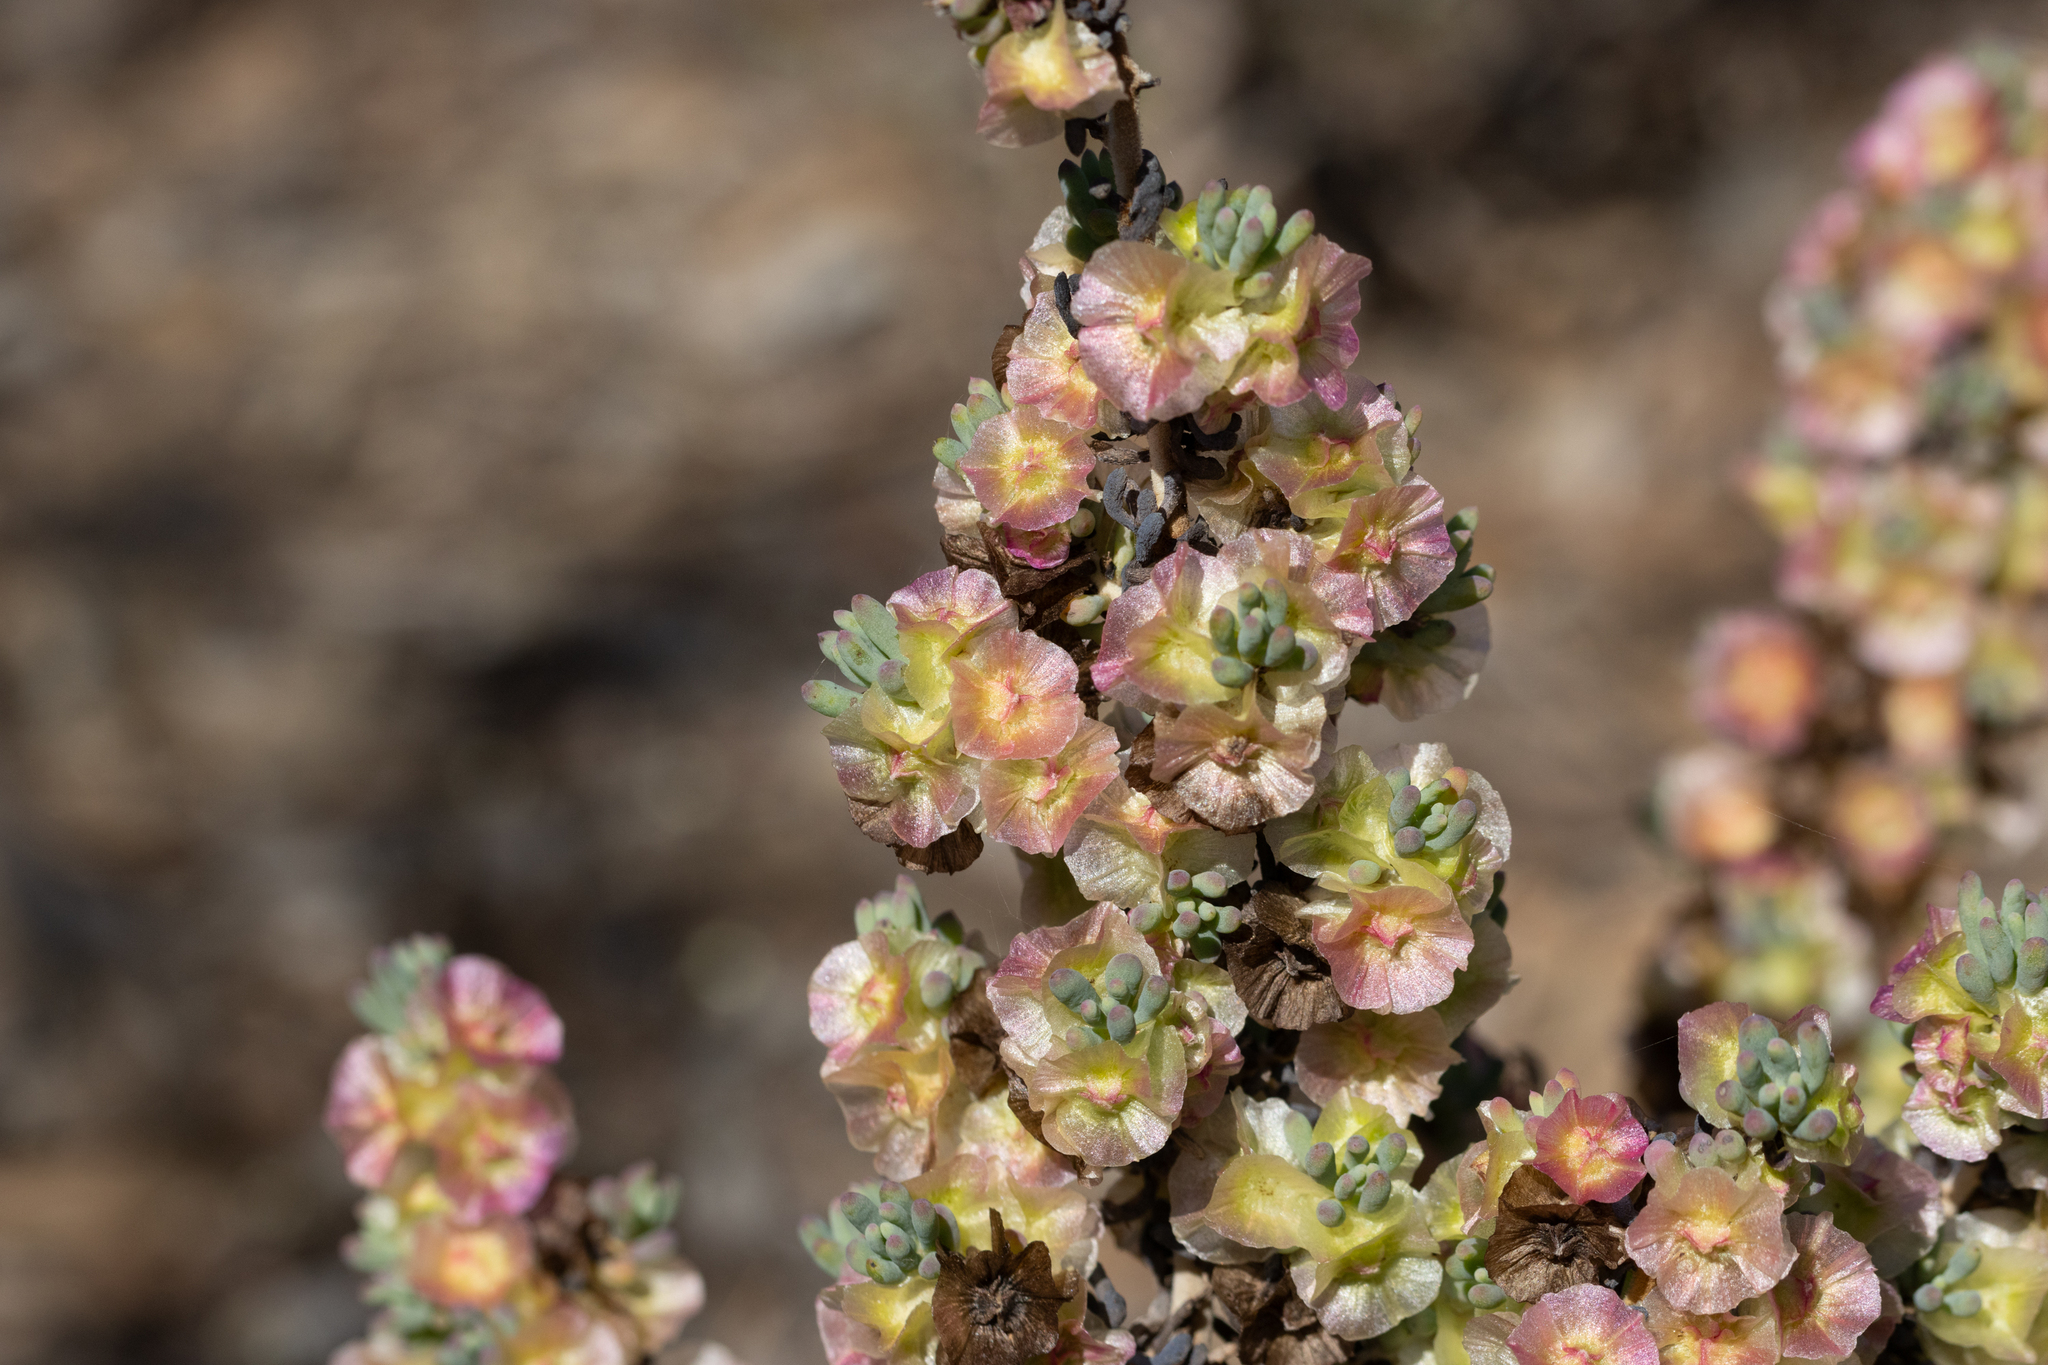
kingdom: Plantae
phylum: Tracheophyta
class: Magnoliopsida
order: Caryophyllales
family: Amaranthaceae
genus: Maireana
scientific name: Maireana erioclada
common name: Rosy bluebush
